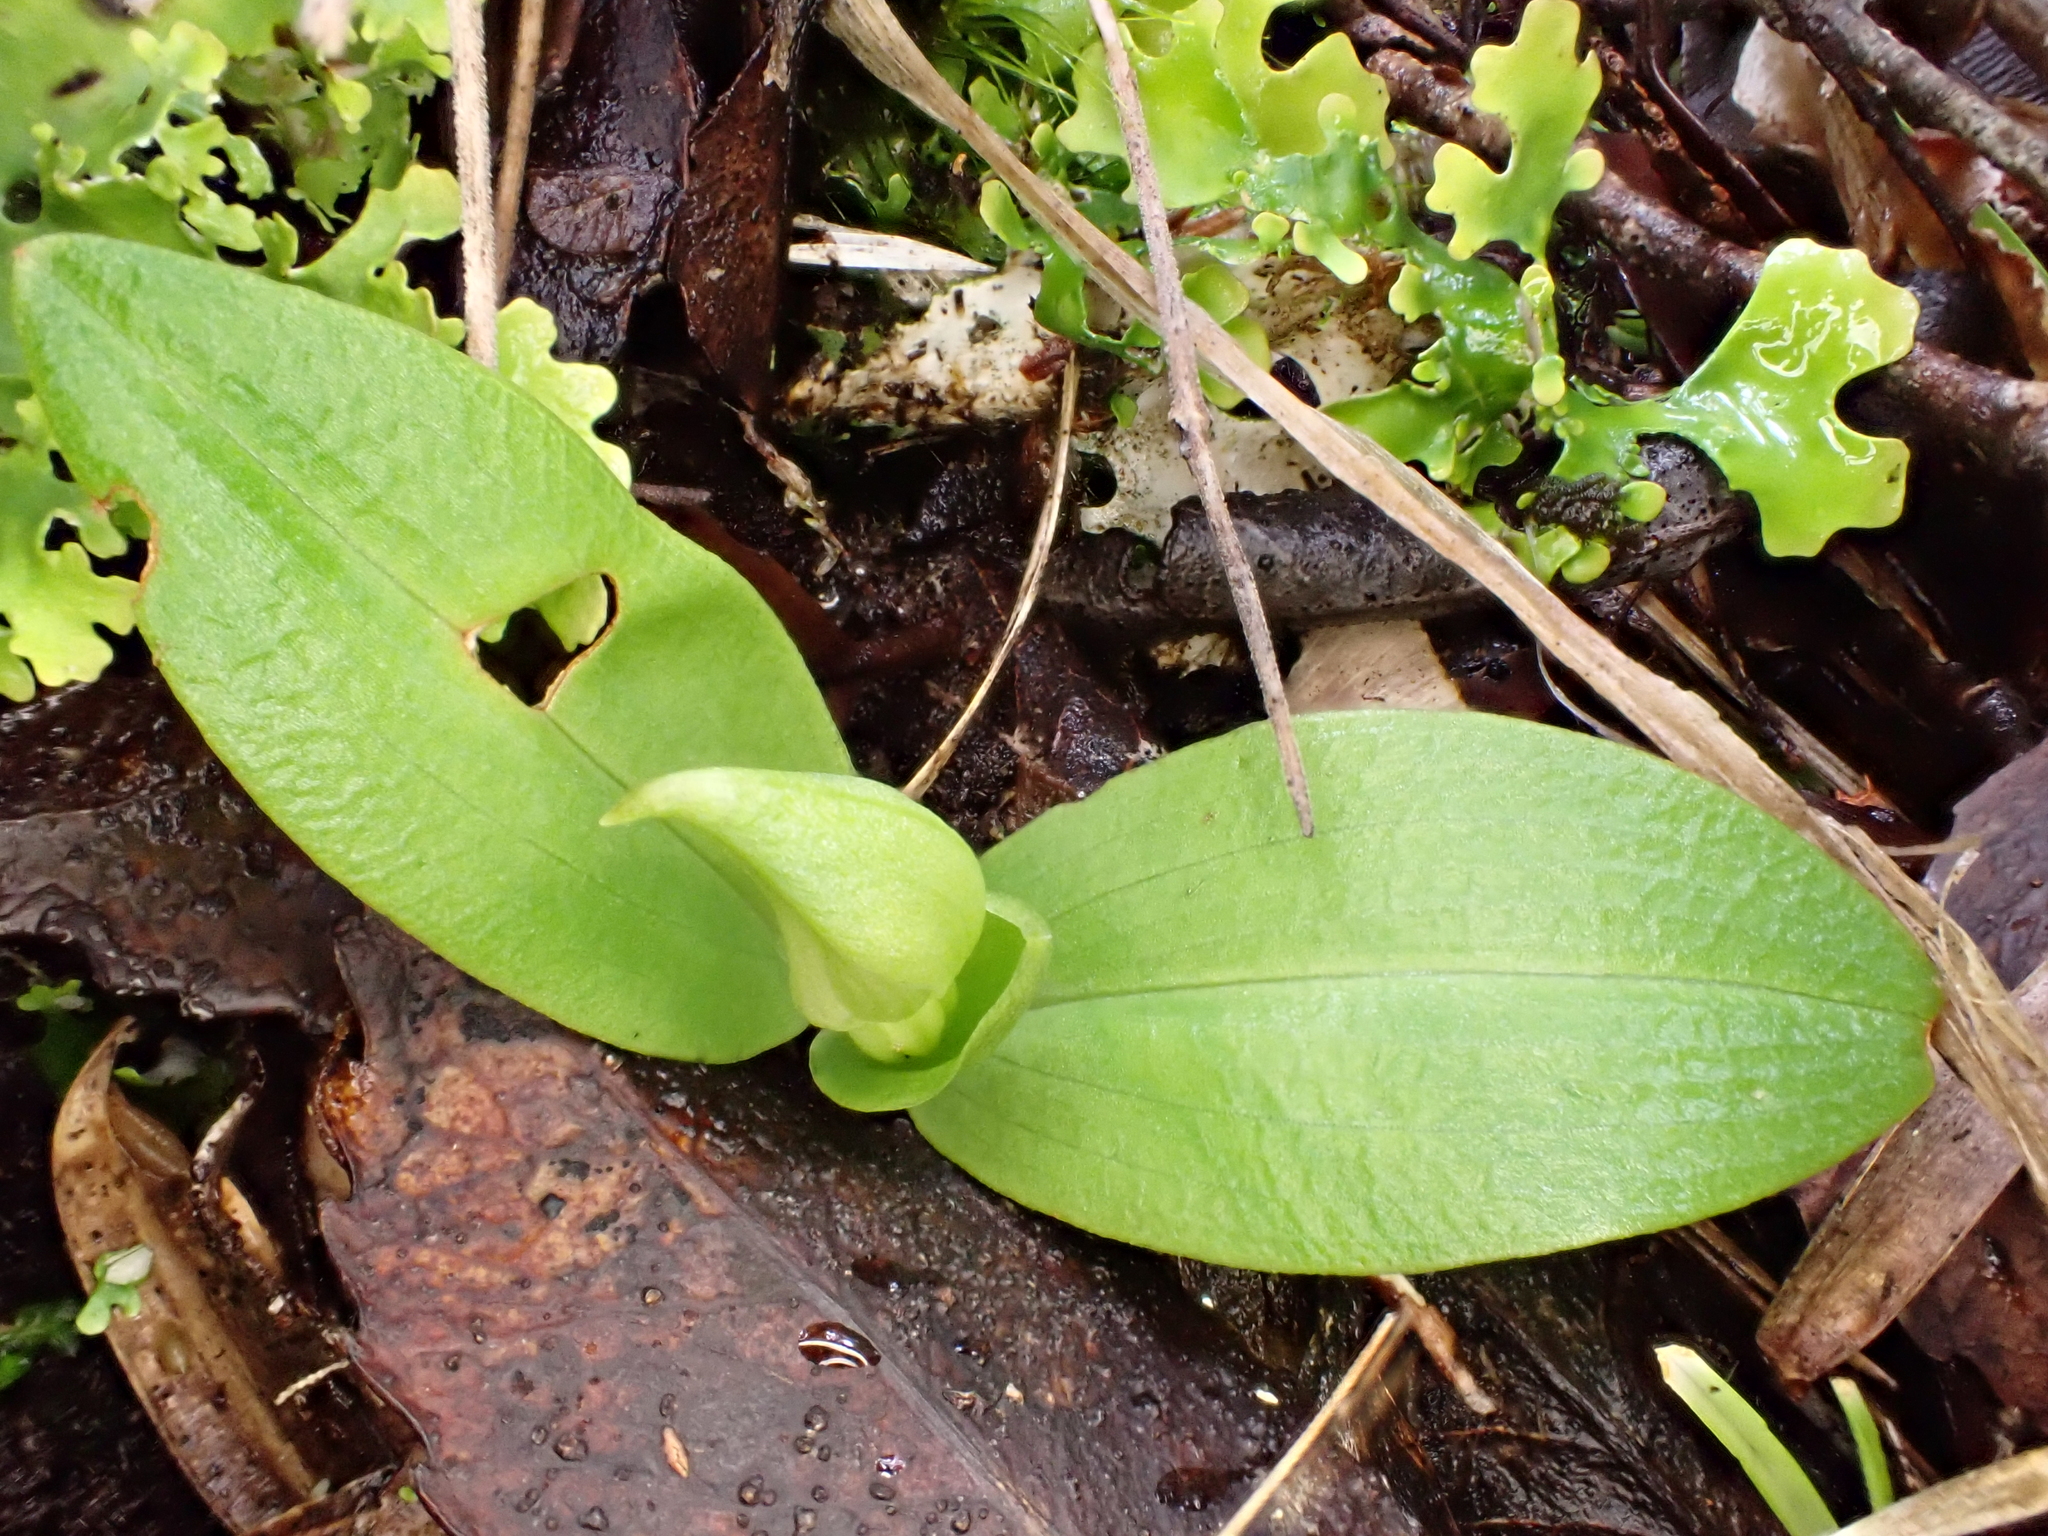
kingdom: Plantae
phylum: Tracheophyta
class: Liliopsida
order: Asparagales
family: Orchidaceae
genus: Chiloglottis
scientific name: Chiloglottis cornuta
